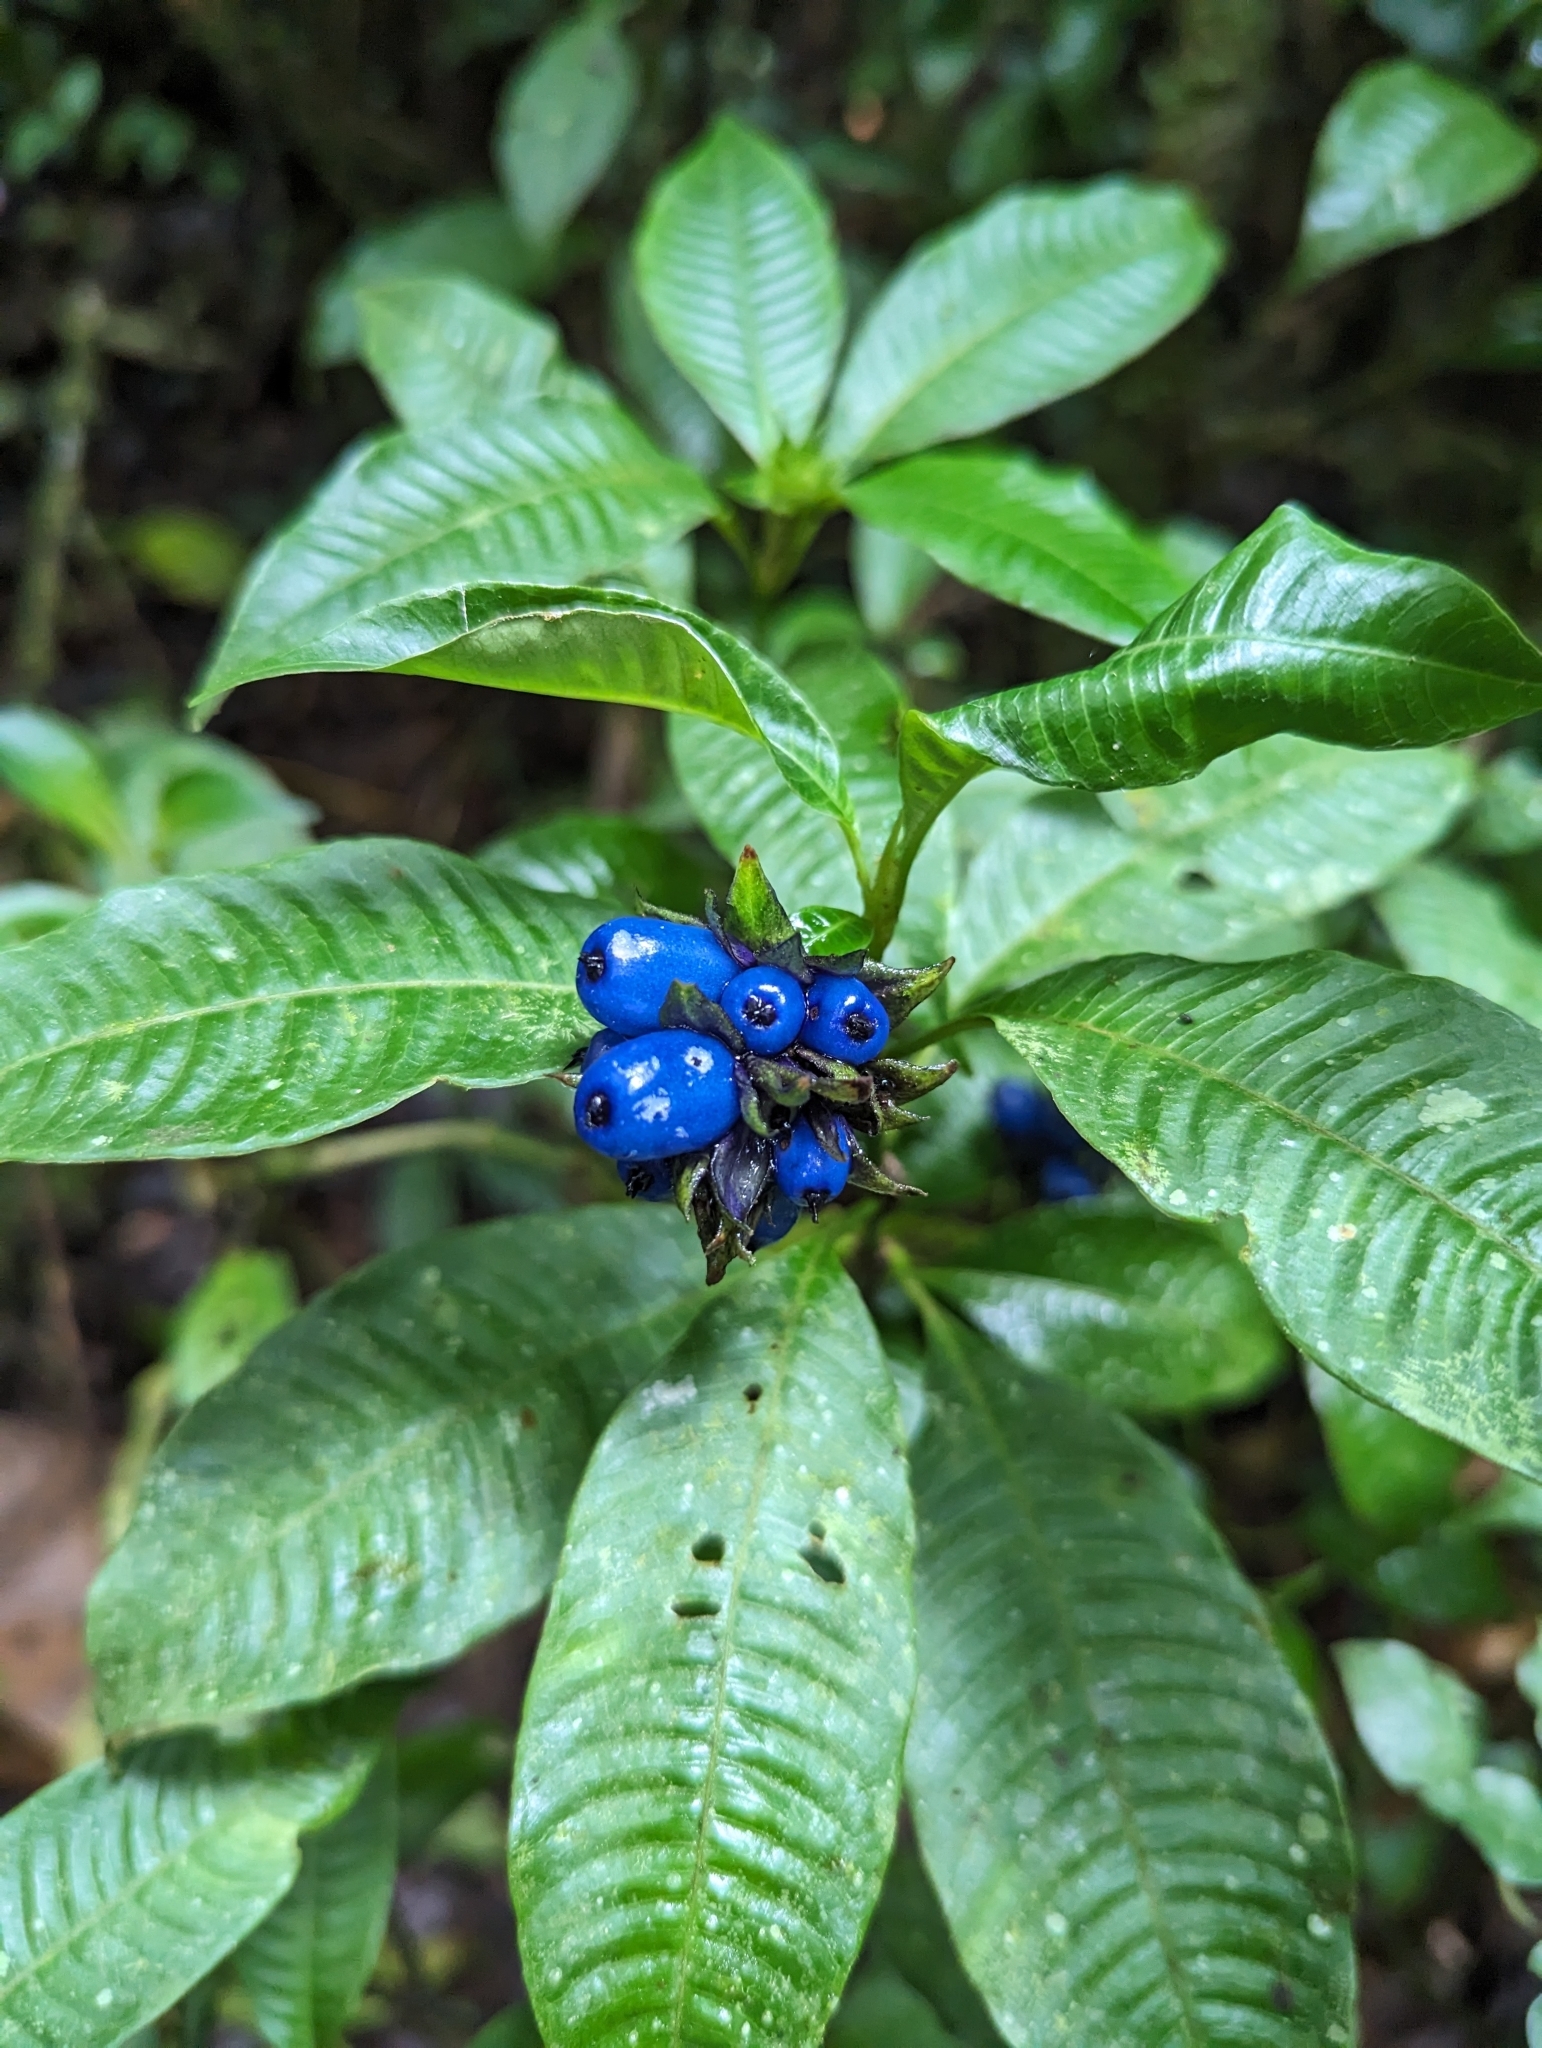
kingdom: Plantae
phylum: Tracheophyta
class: Magnoliopsida
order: Gentianales
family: Rubiaceae
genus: Palicourea
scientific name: Palicourea ramonensis
